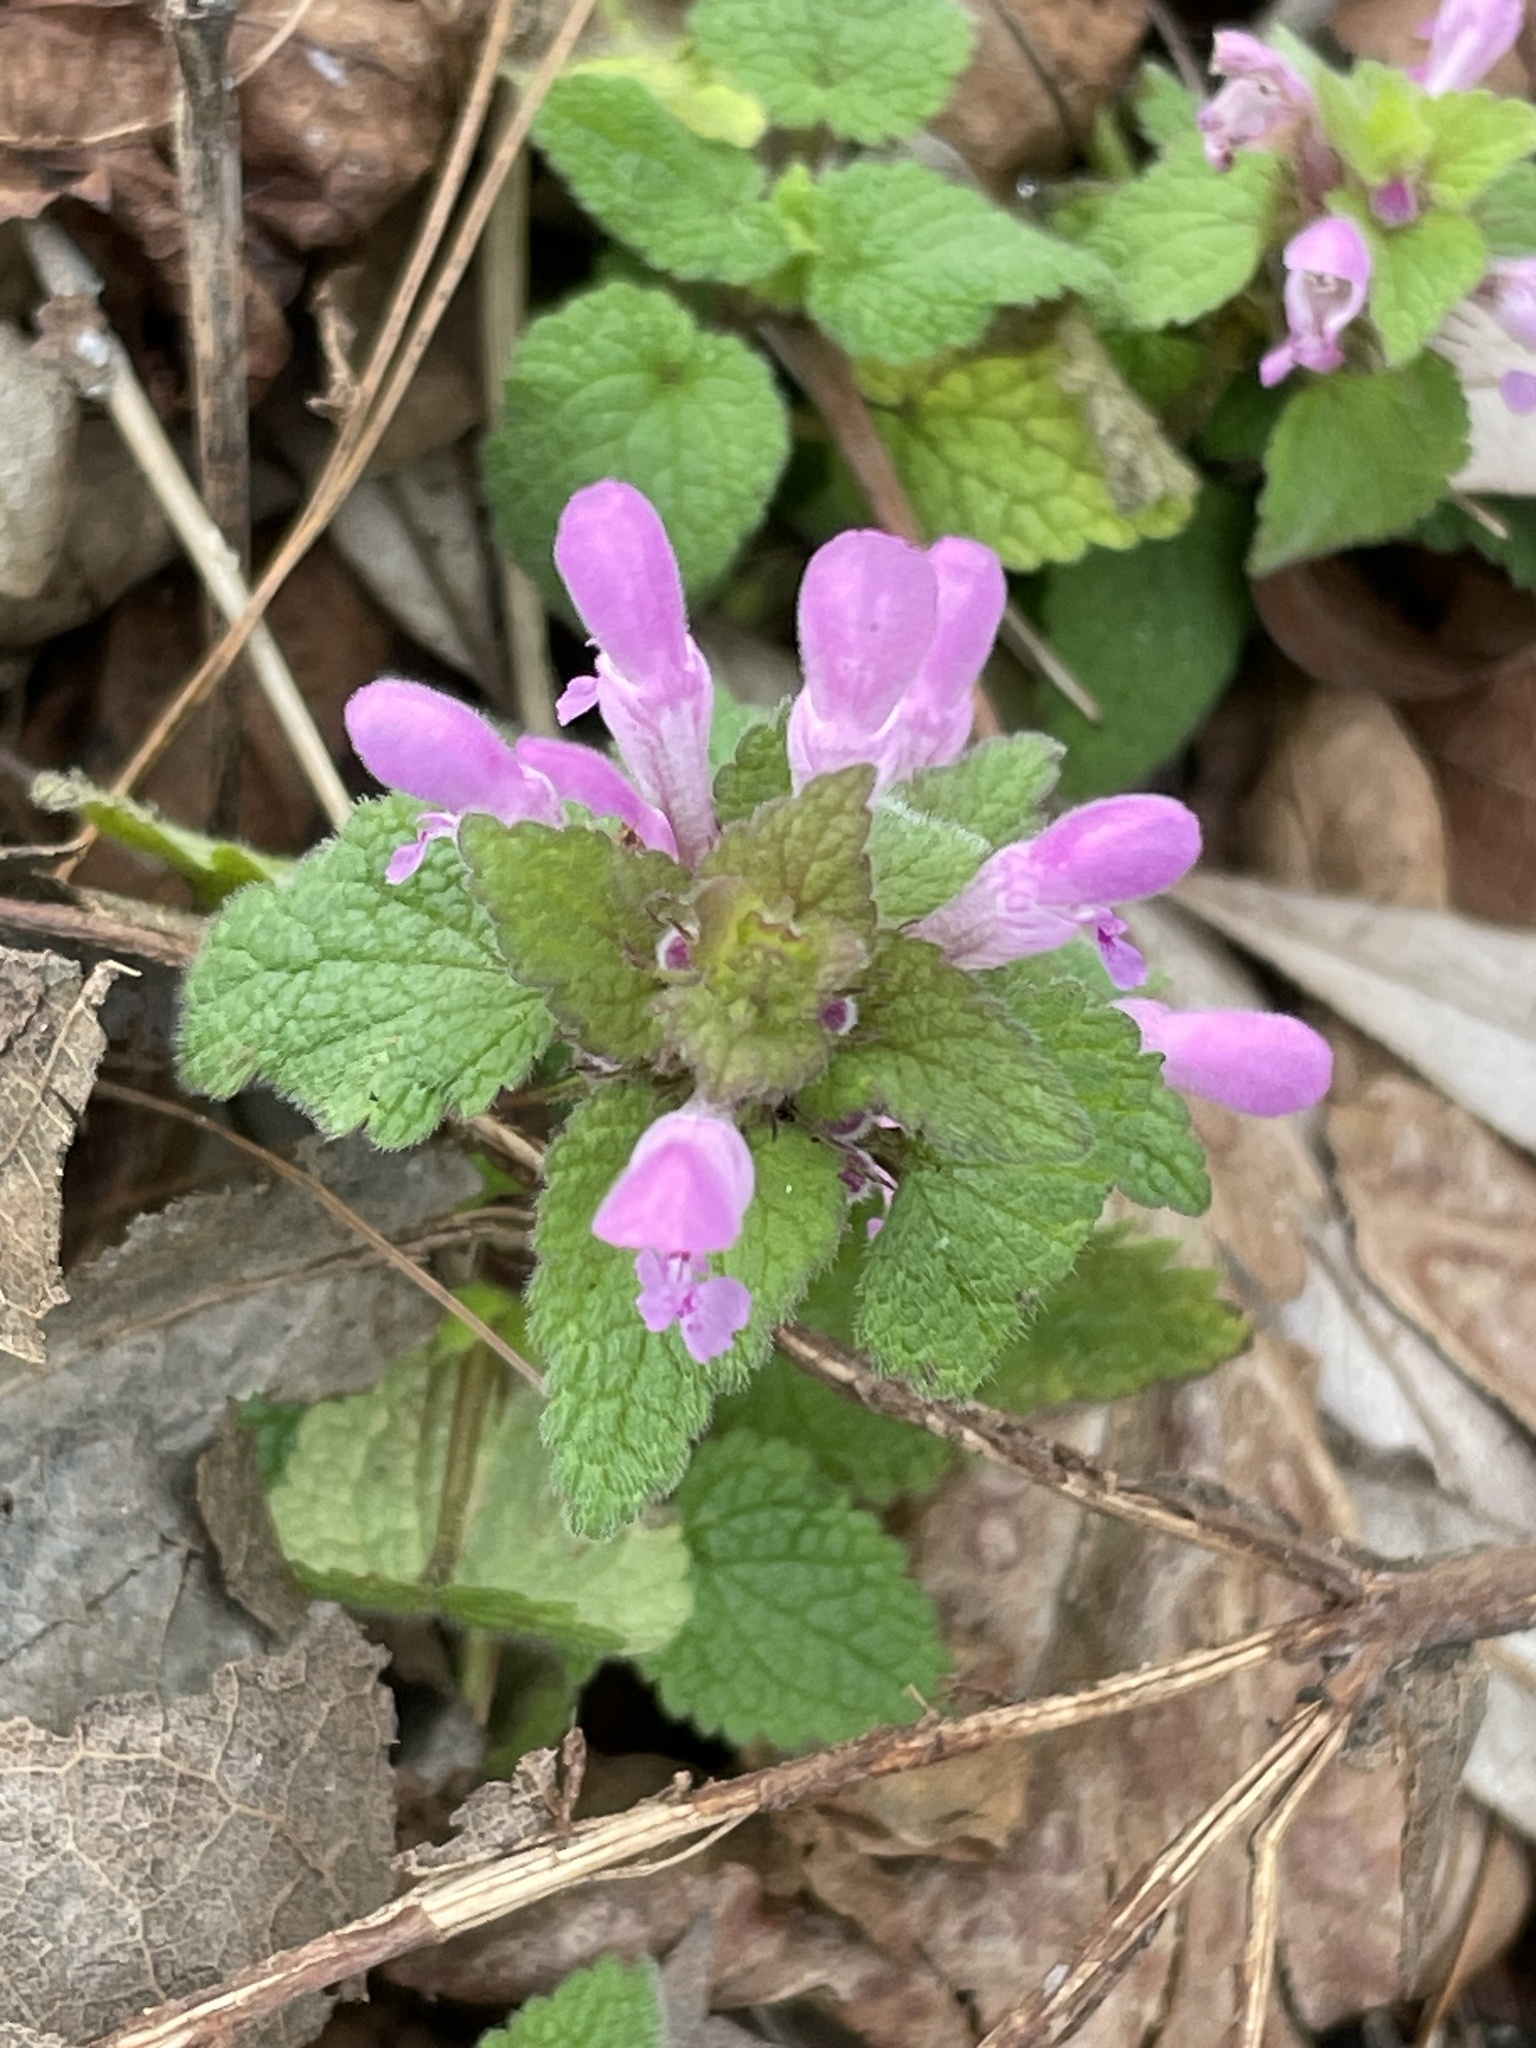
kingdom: Plantae
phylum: Tracheophyta
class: Magnoliopsida
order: Lamiales
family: Lamiaceae
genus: Lamium
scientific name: Lamium purpureum
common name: Red dead-nettle
